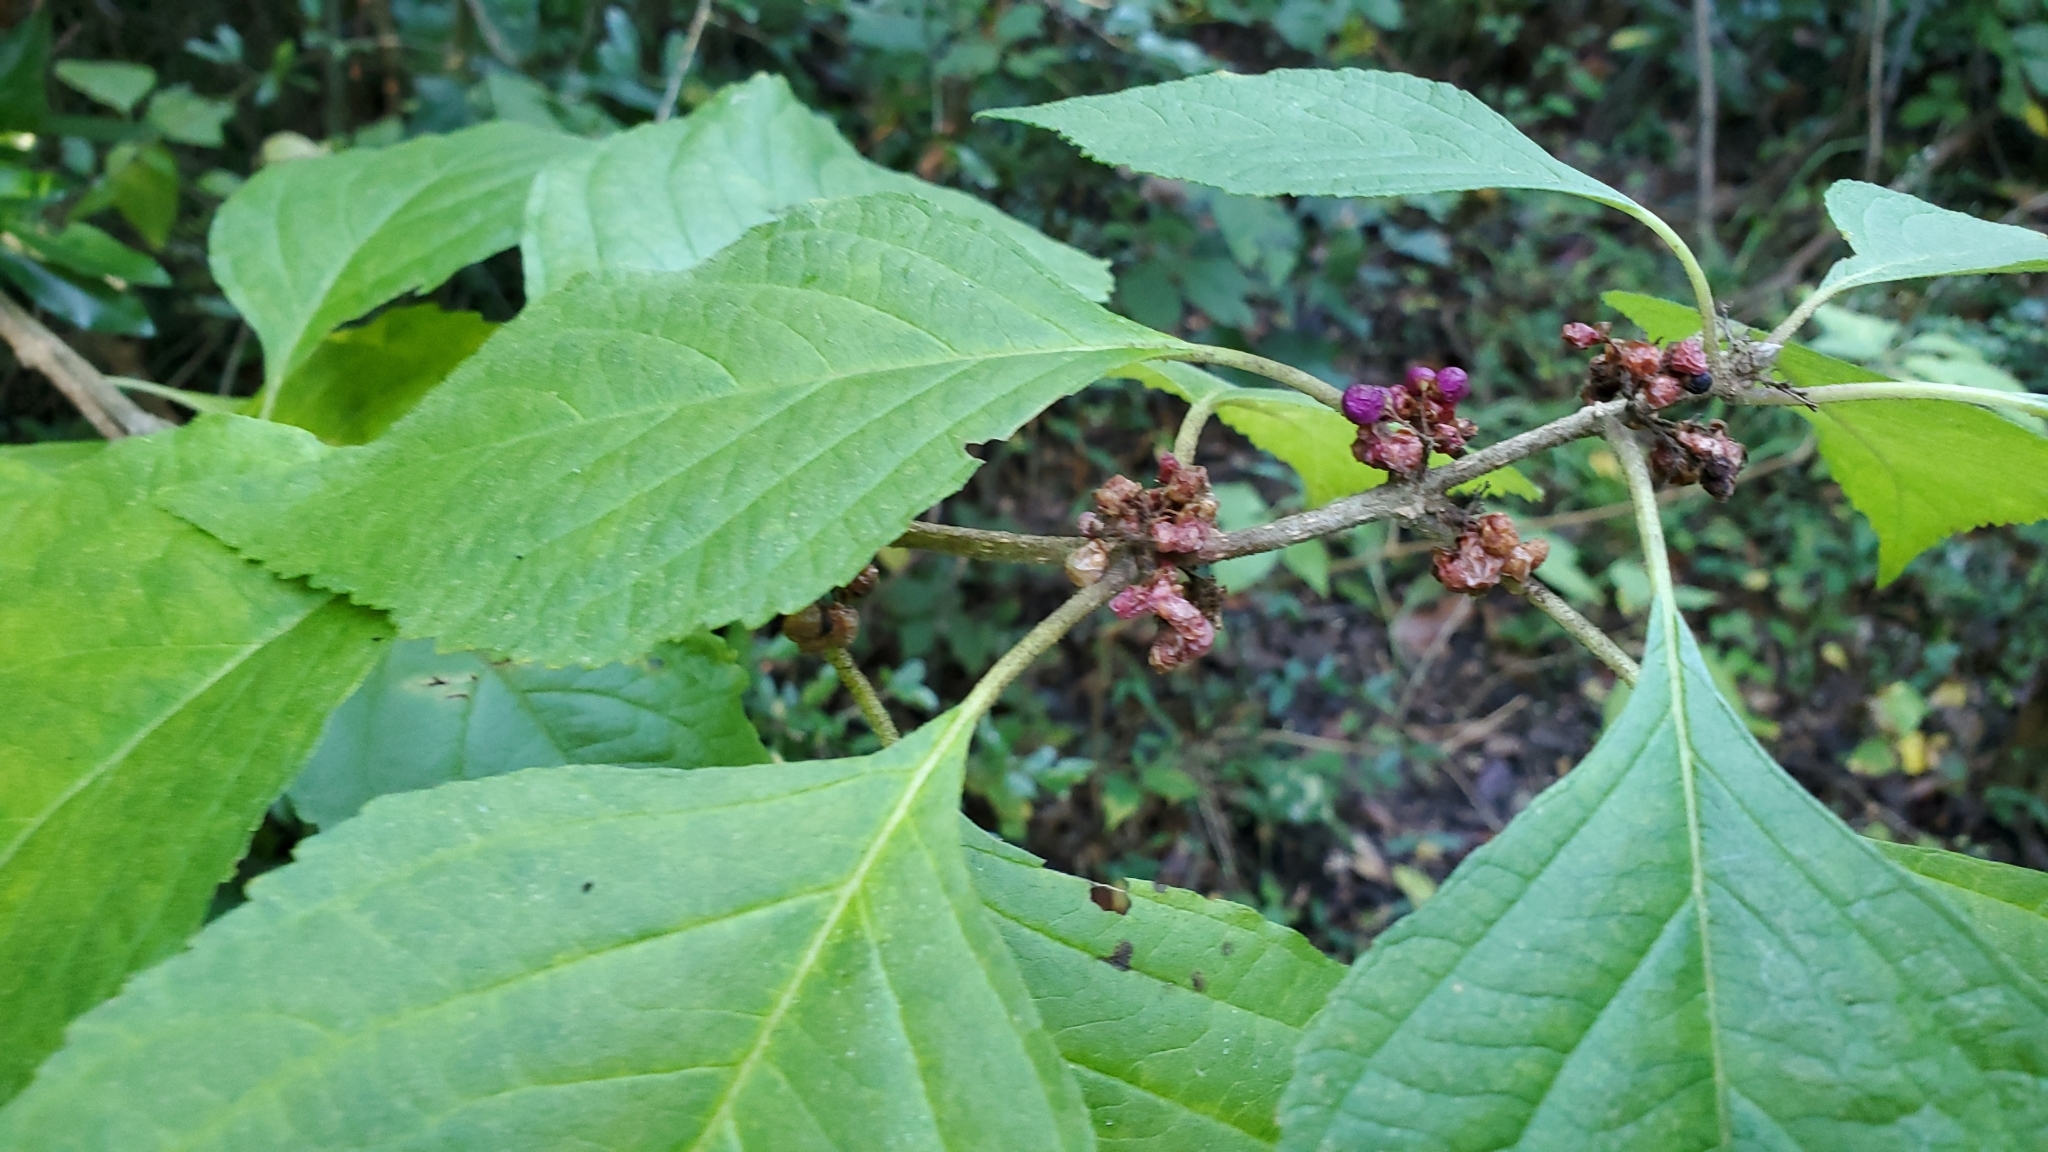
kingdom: Plantae
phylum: Tracheophyta
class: Magnoliopsida
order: Lamiales
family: Lamiaceae
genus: Callicarpa
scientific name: Callicarpa americana
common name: American beautyberry
